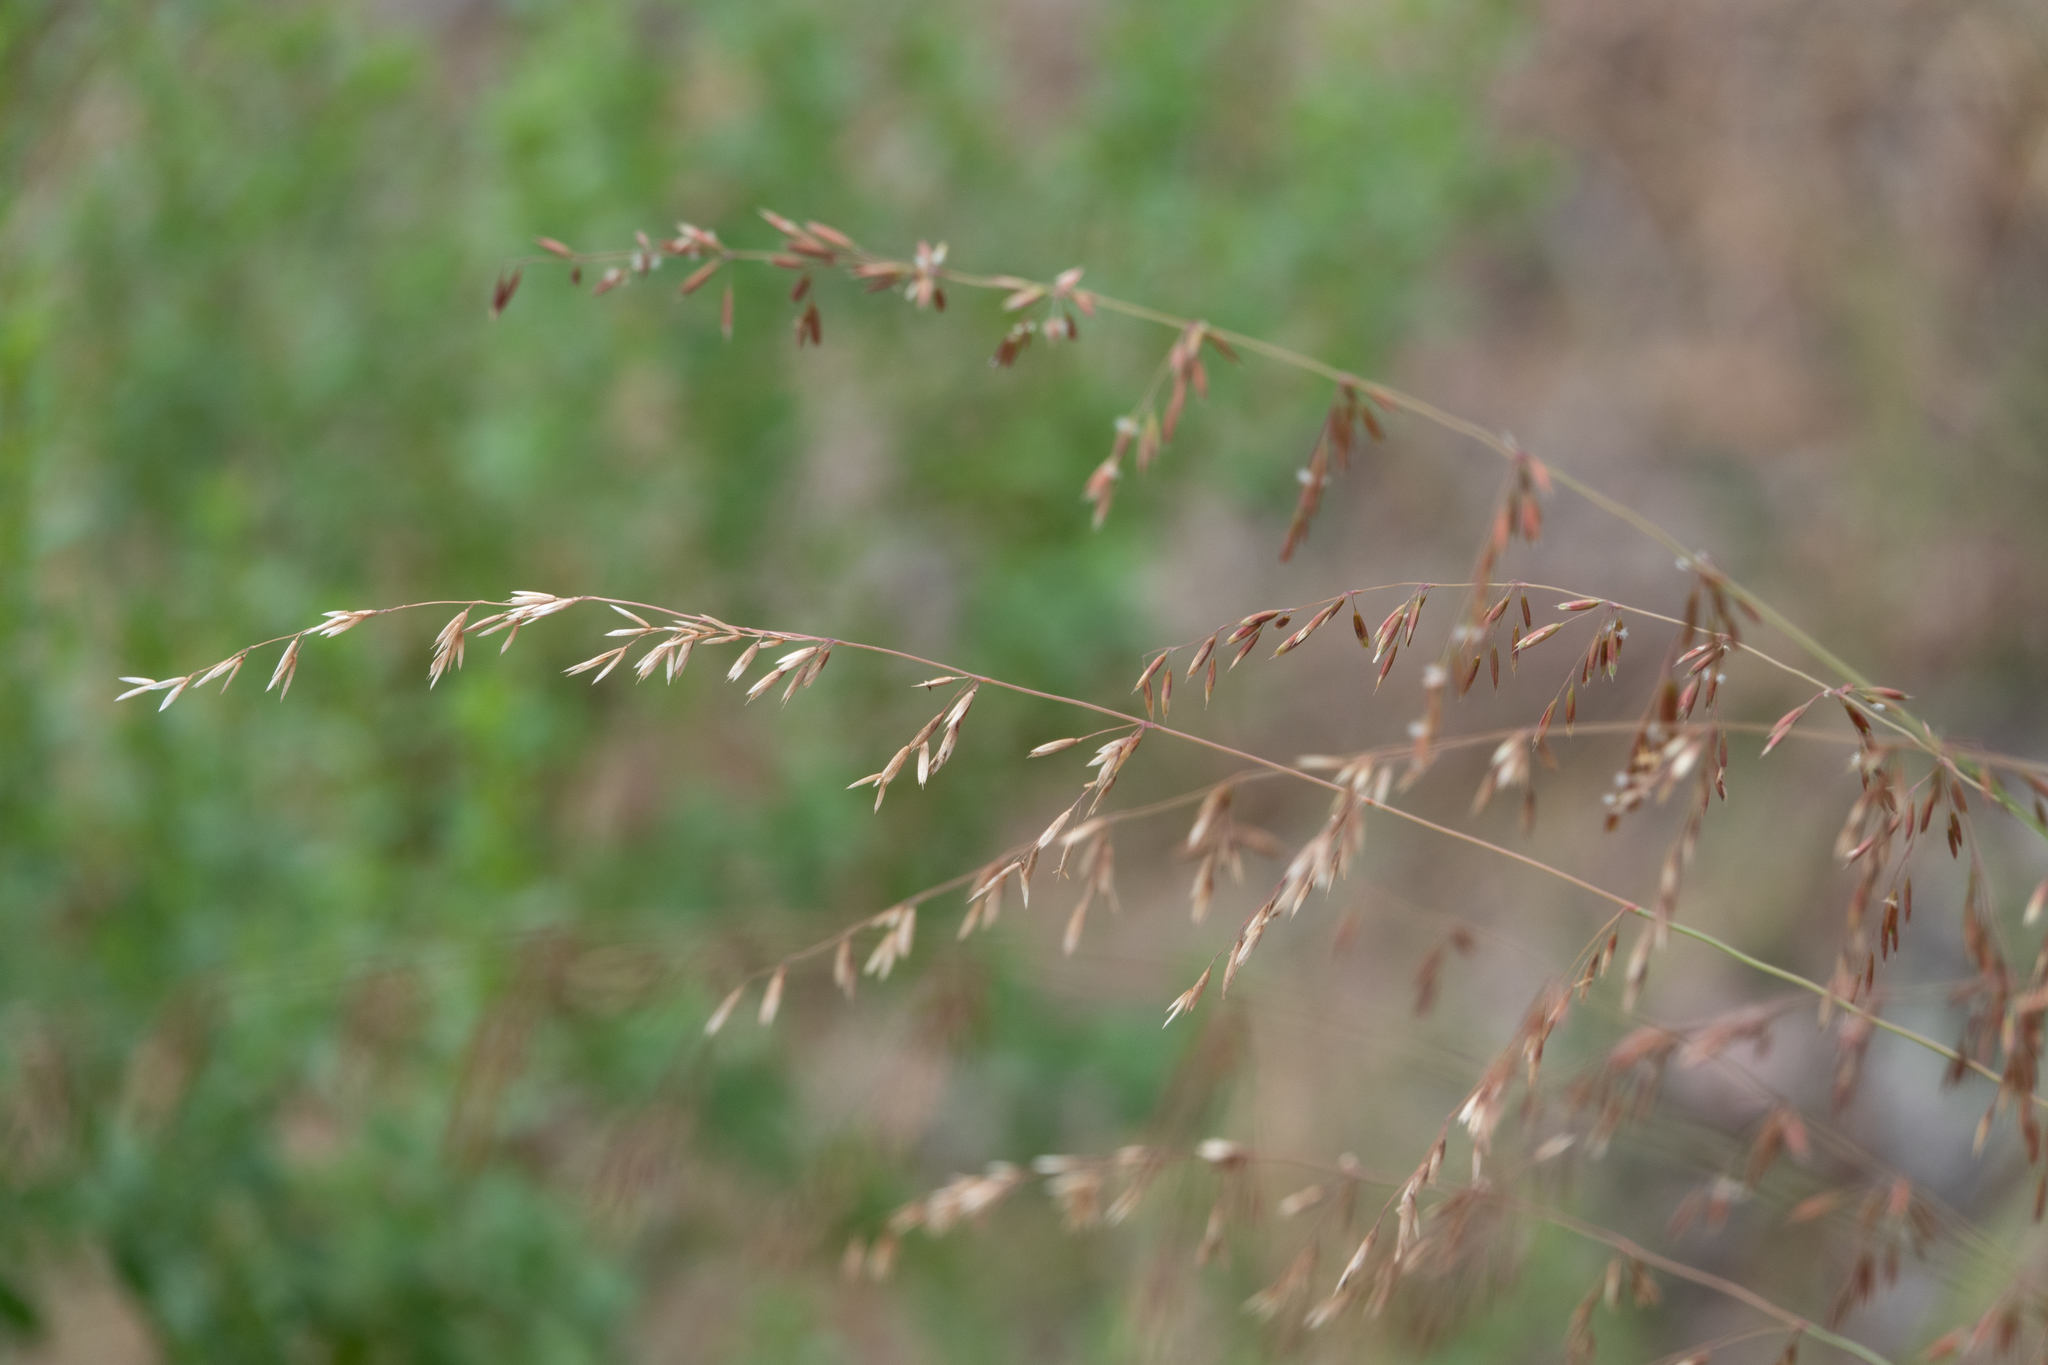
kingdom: Plantae
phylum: Tracheophyta
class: Liliopsida
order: Poales
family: Poaceae
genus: Ehrharta
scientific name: Ehrharta erecta
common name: Panic veldtgrass
